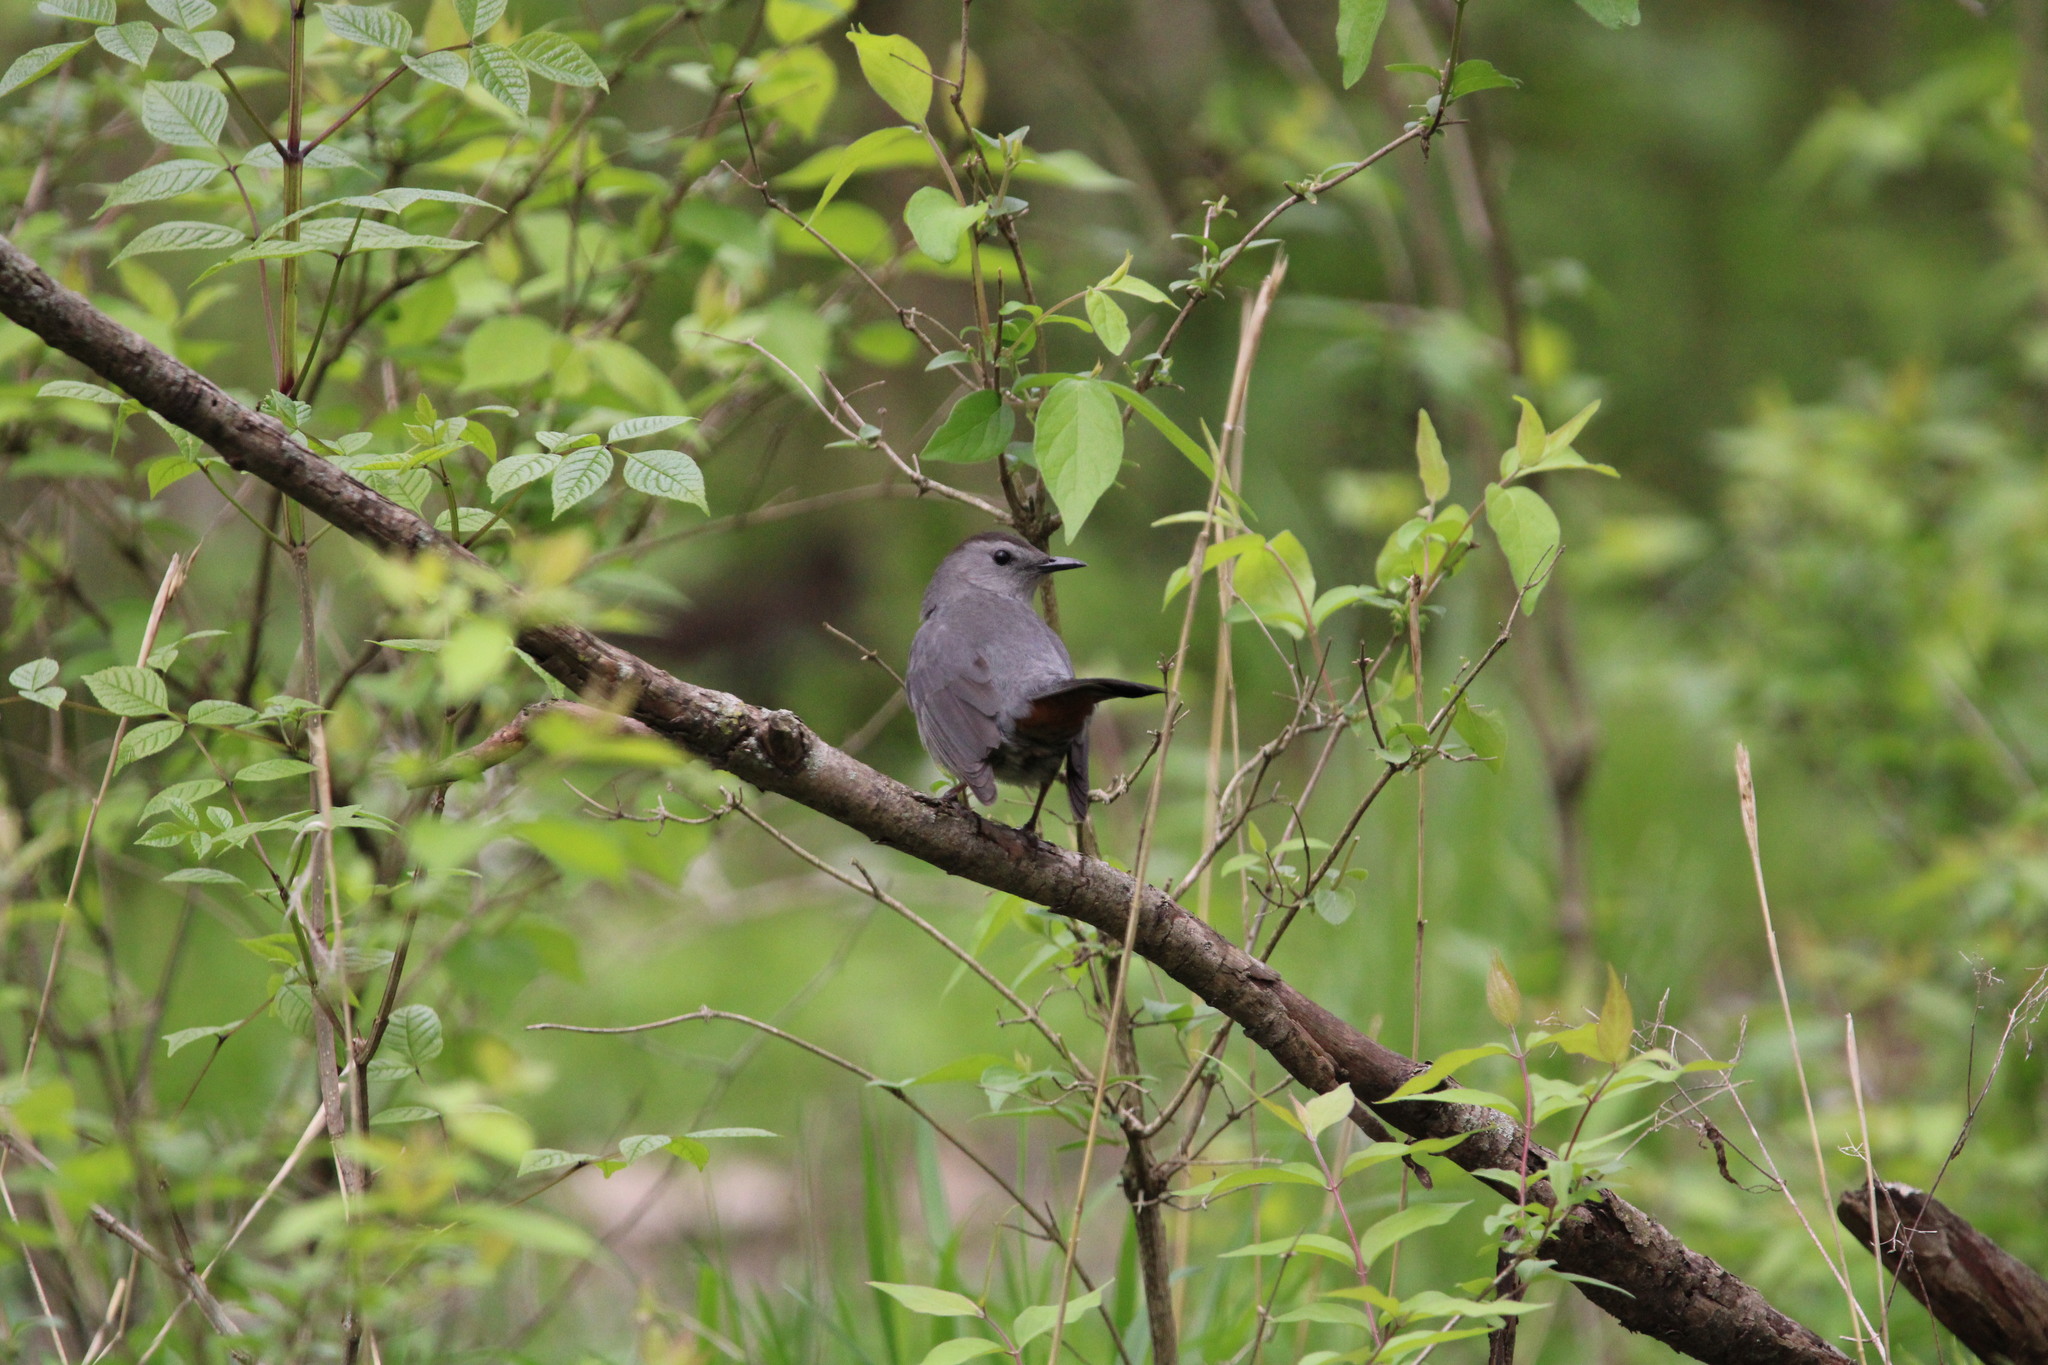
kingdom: Animalia
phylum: Chordata
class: Aves
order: Passeriformes
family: Mimidae
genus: Dumetella
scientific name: Dumetella carolinensis
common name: Gray catbird
